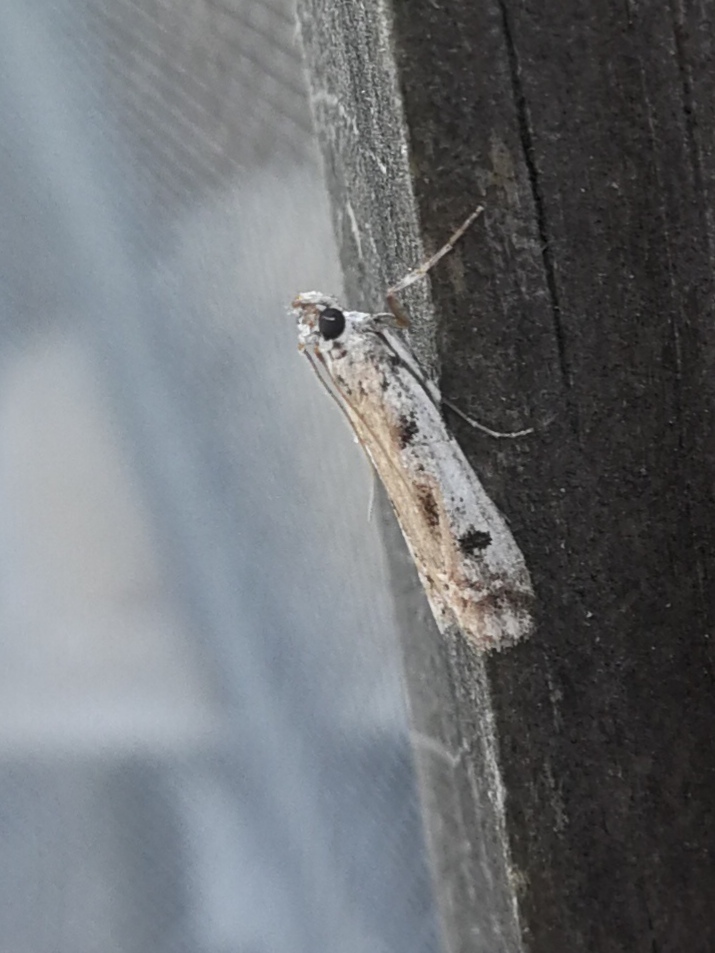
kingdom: Animalia
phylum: Arthropoda
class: Insecta
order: Lepidoptera
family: Pyralidae
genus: Phycitodes
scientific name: Phycitodes binaevella
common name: Ermine knot-horn
